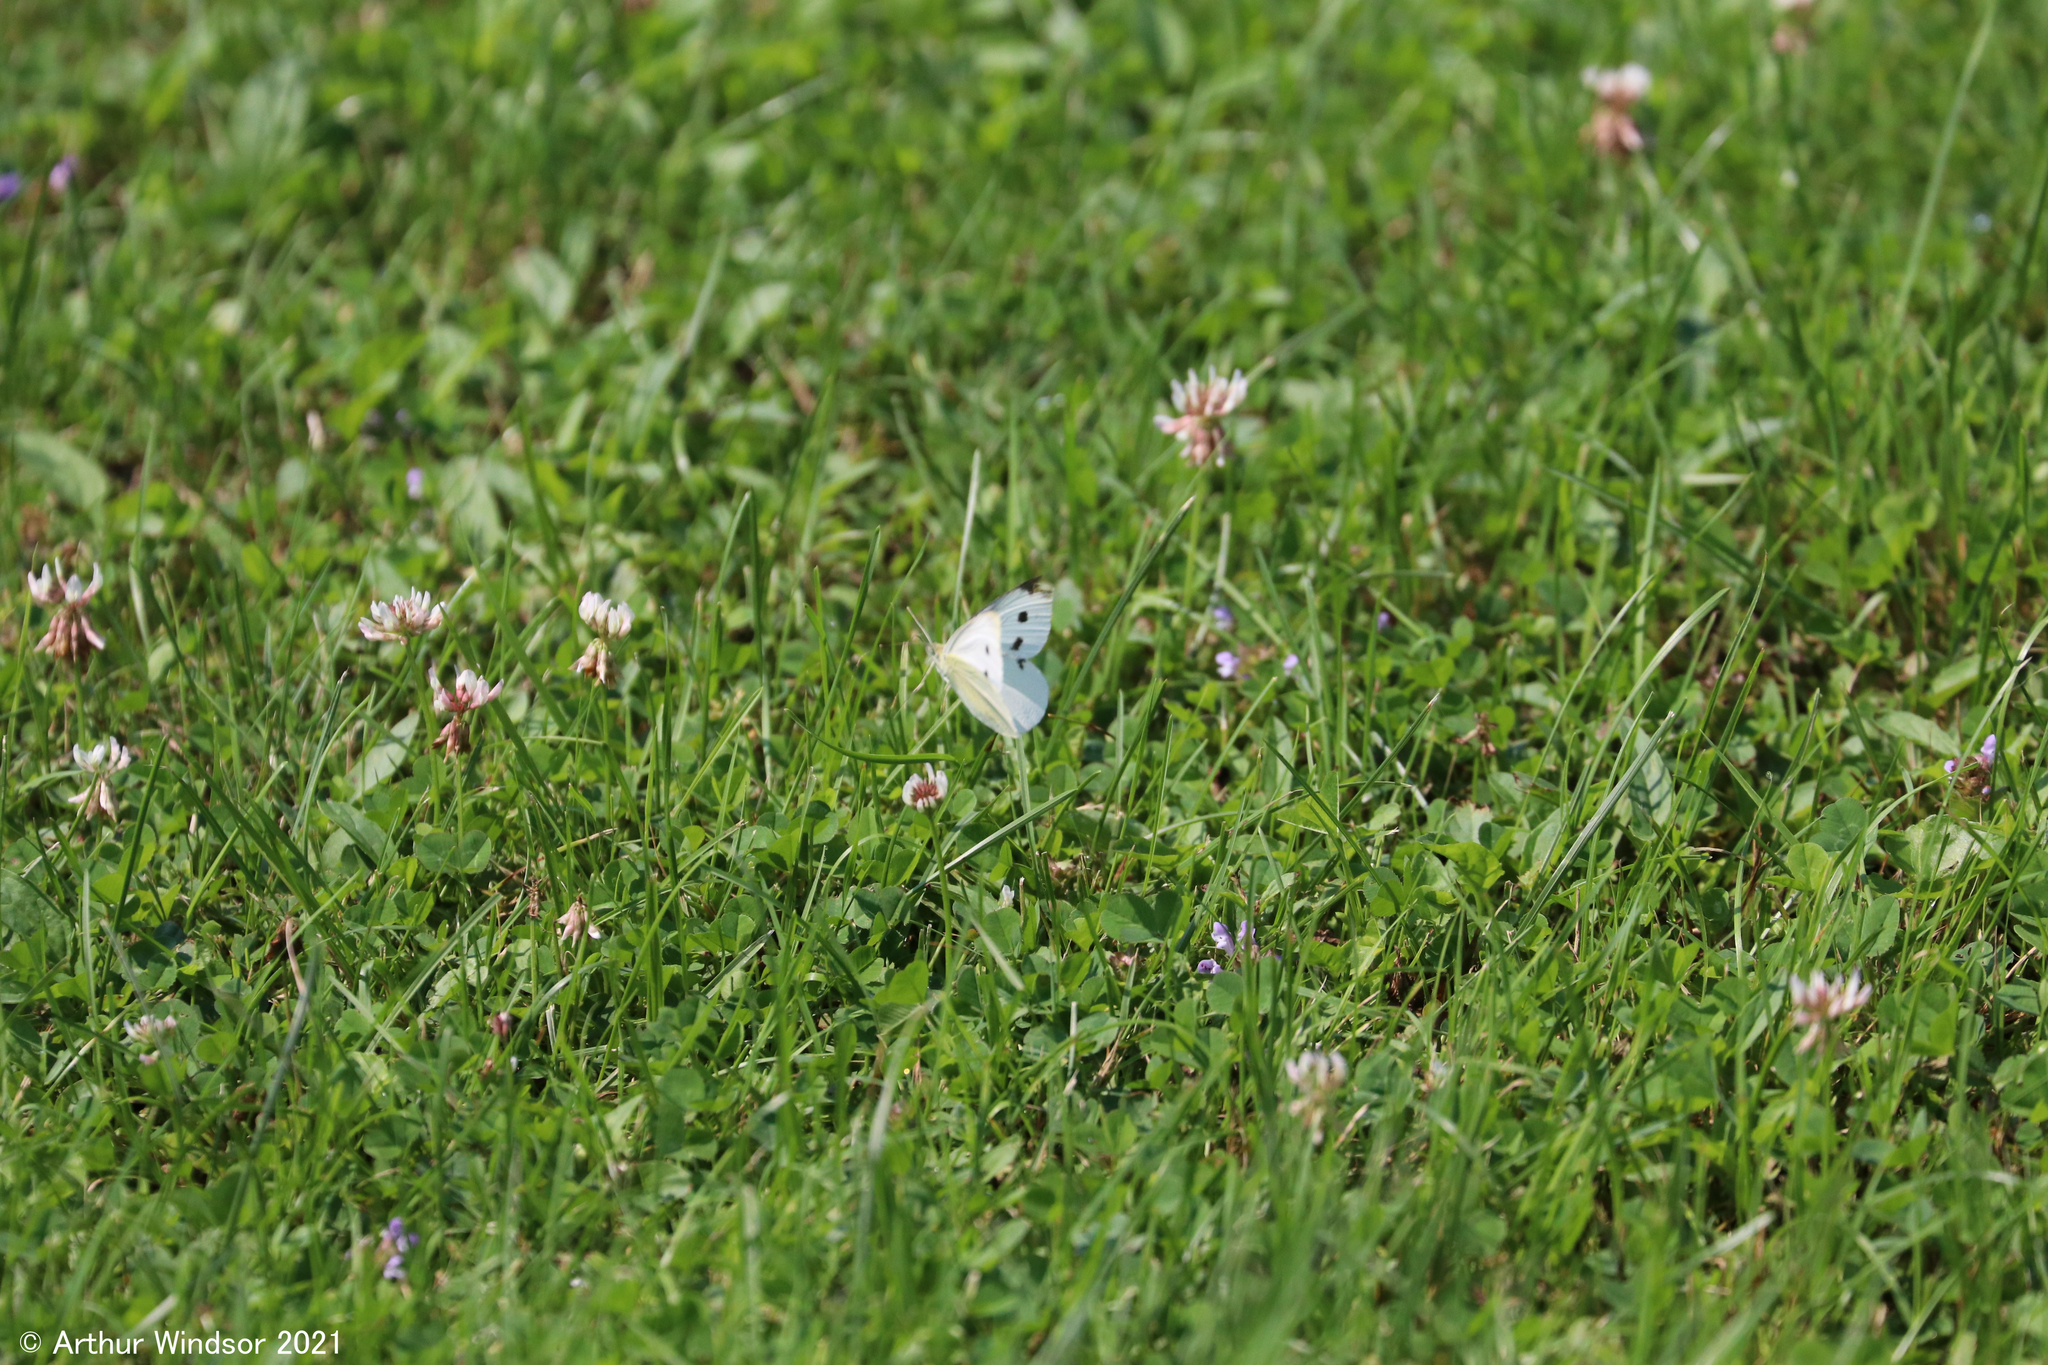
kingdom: Animalia
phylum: Arthropoda
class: Insecta
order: Lepidoptera
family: Pieridae
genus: Pieris
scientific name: Pieris rapae
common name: Small white
